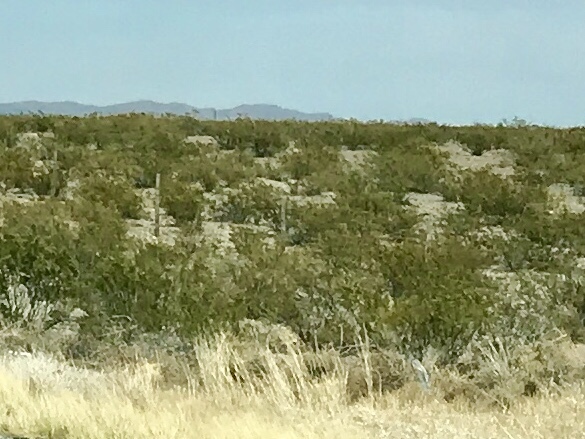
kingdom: Plantae
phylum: Tracheophyta
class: Magnoliopsida
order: Zygophyllales
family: Zygophyllaceae
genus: Larrea
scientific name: Larrea tridentata
